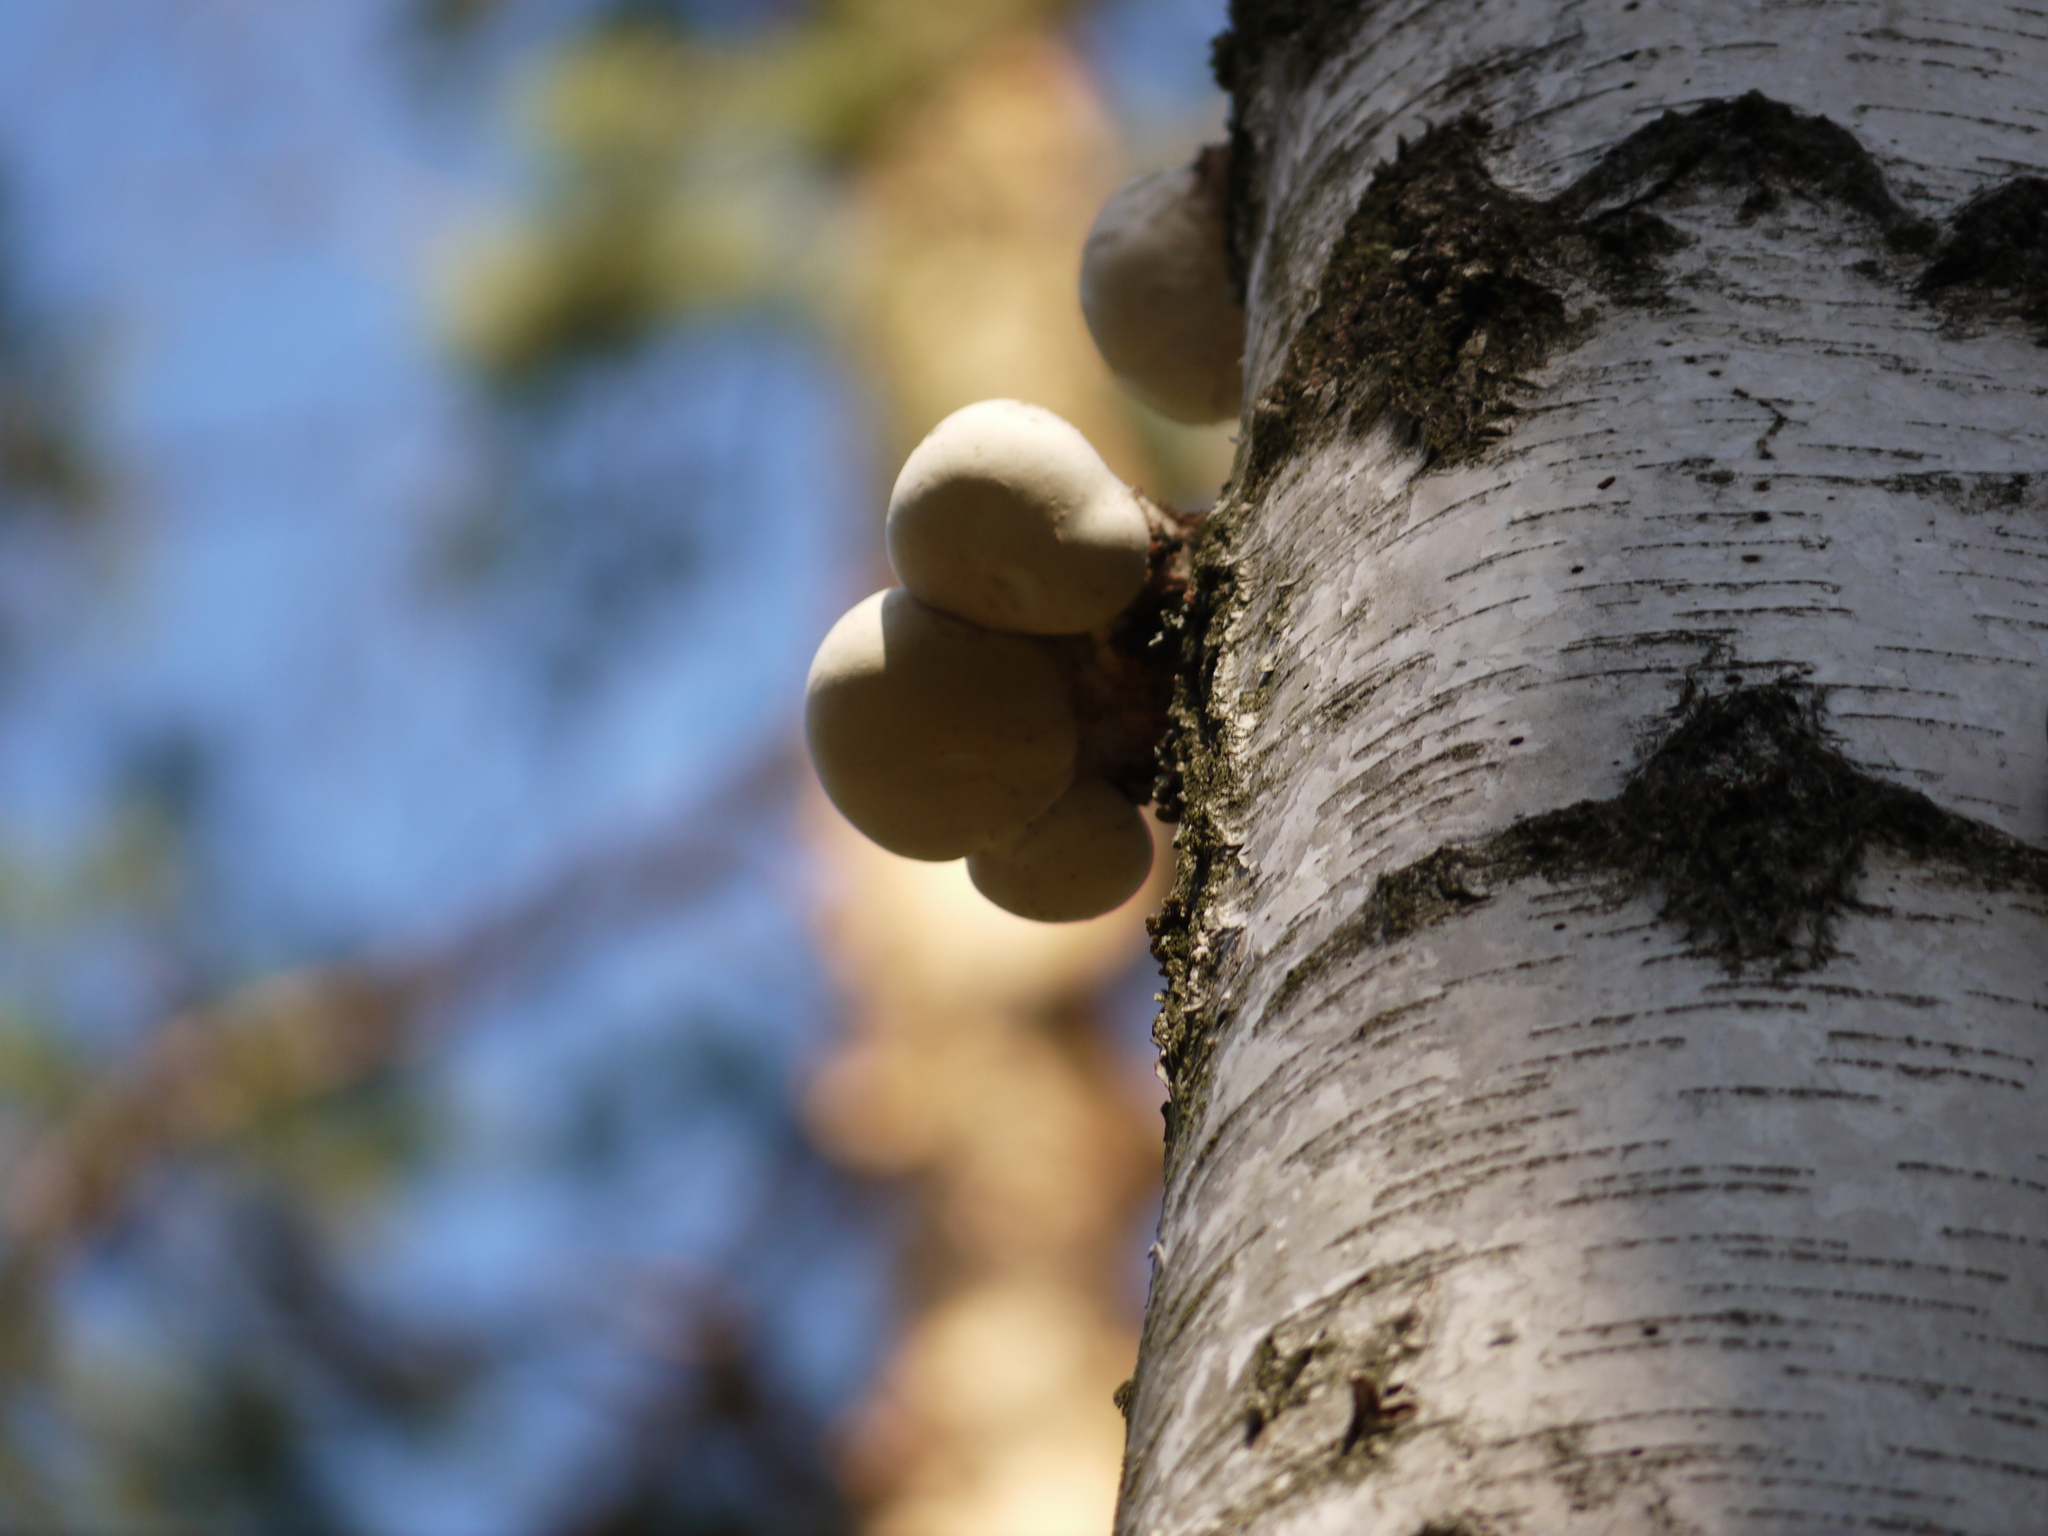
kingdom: Fungi
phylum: Basidiomycota
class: Agaricomycetes
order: Polyporales
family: Fomitopsidaceae
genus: Fomitopsis
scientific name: Fomitopsis betulina
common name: Birch polypore
